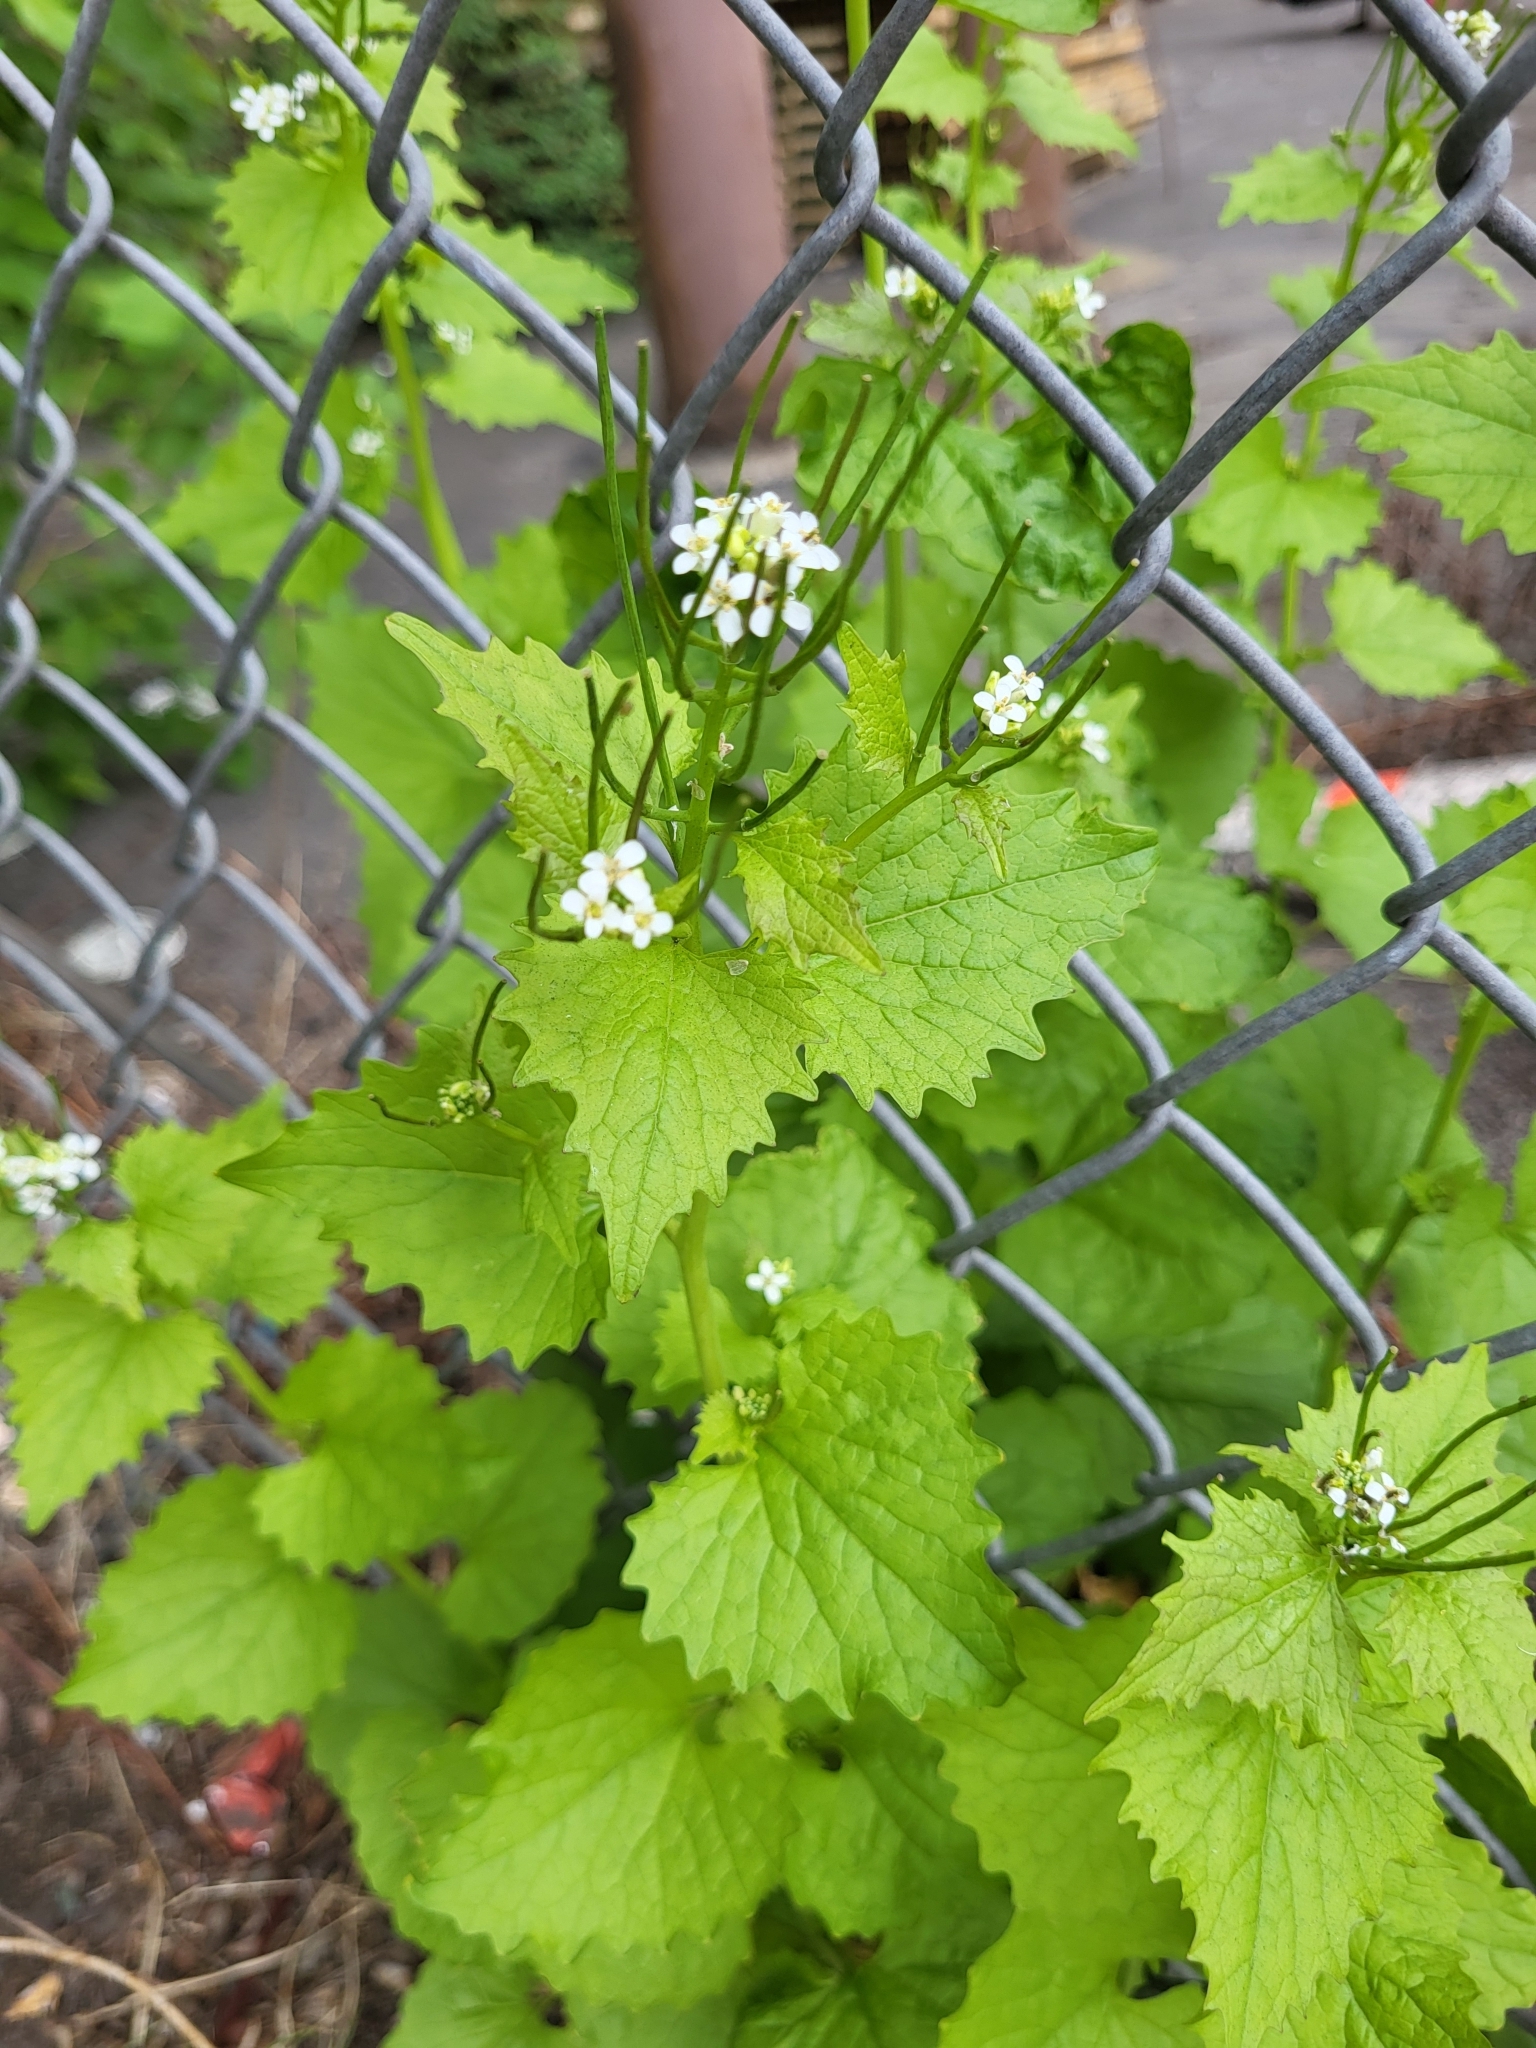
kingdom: Plantae
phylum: Tracheophyta
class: Magnoliopsida
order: Brassicales
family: Brassicaceae
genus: Alliaria
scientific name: Alliaria petiolata
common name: Garlic mustard
